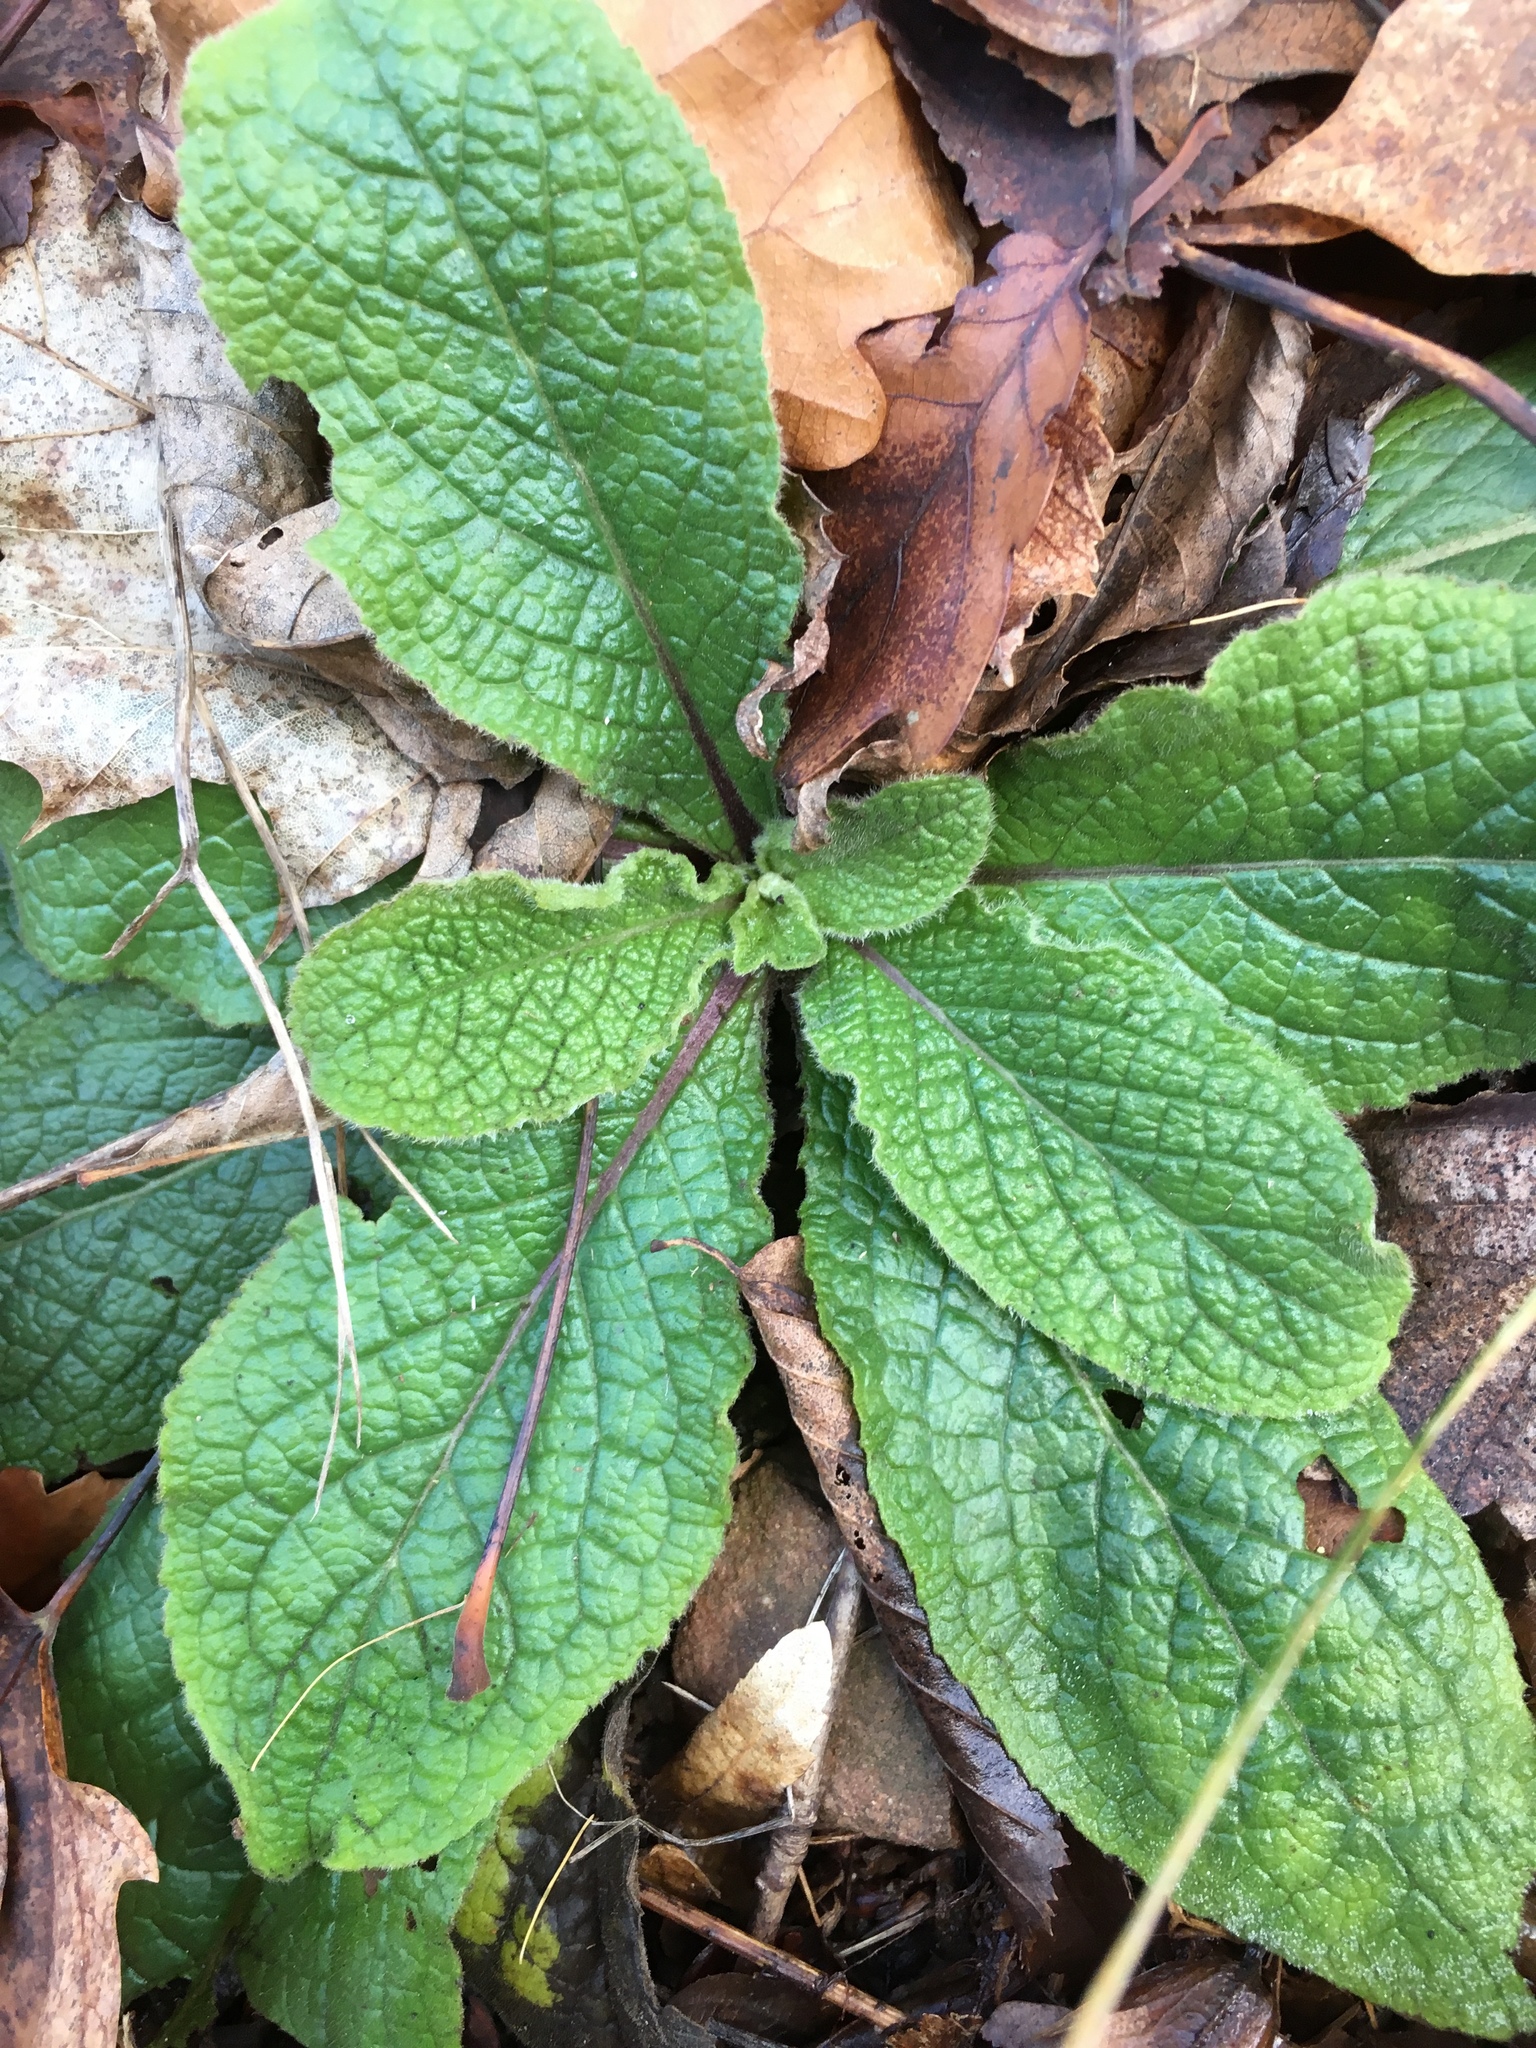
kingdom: Plantae
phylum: Tracheophyta
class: Magnoliopsida
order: Lamiales
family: Plantaginaceae
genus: Digitalis
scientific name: Digitalis purpurea
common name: Foxglove
